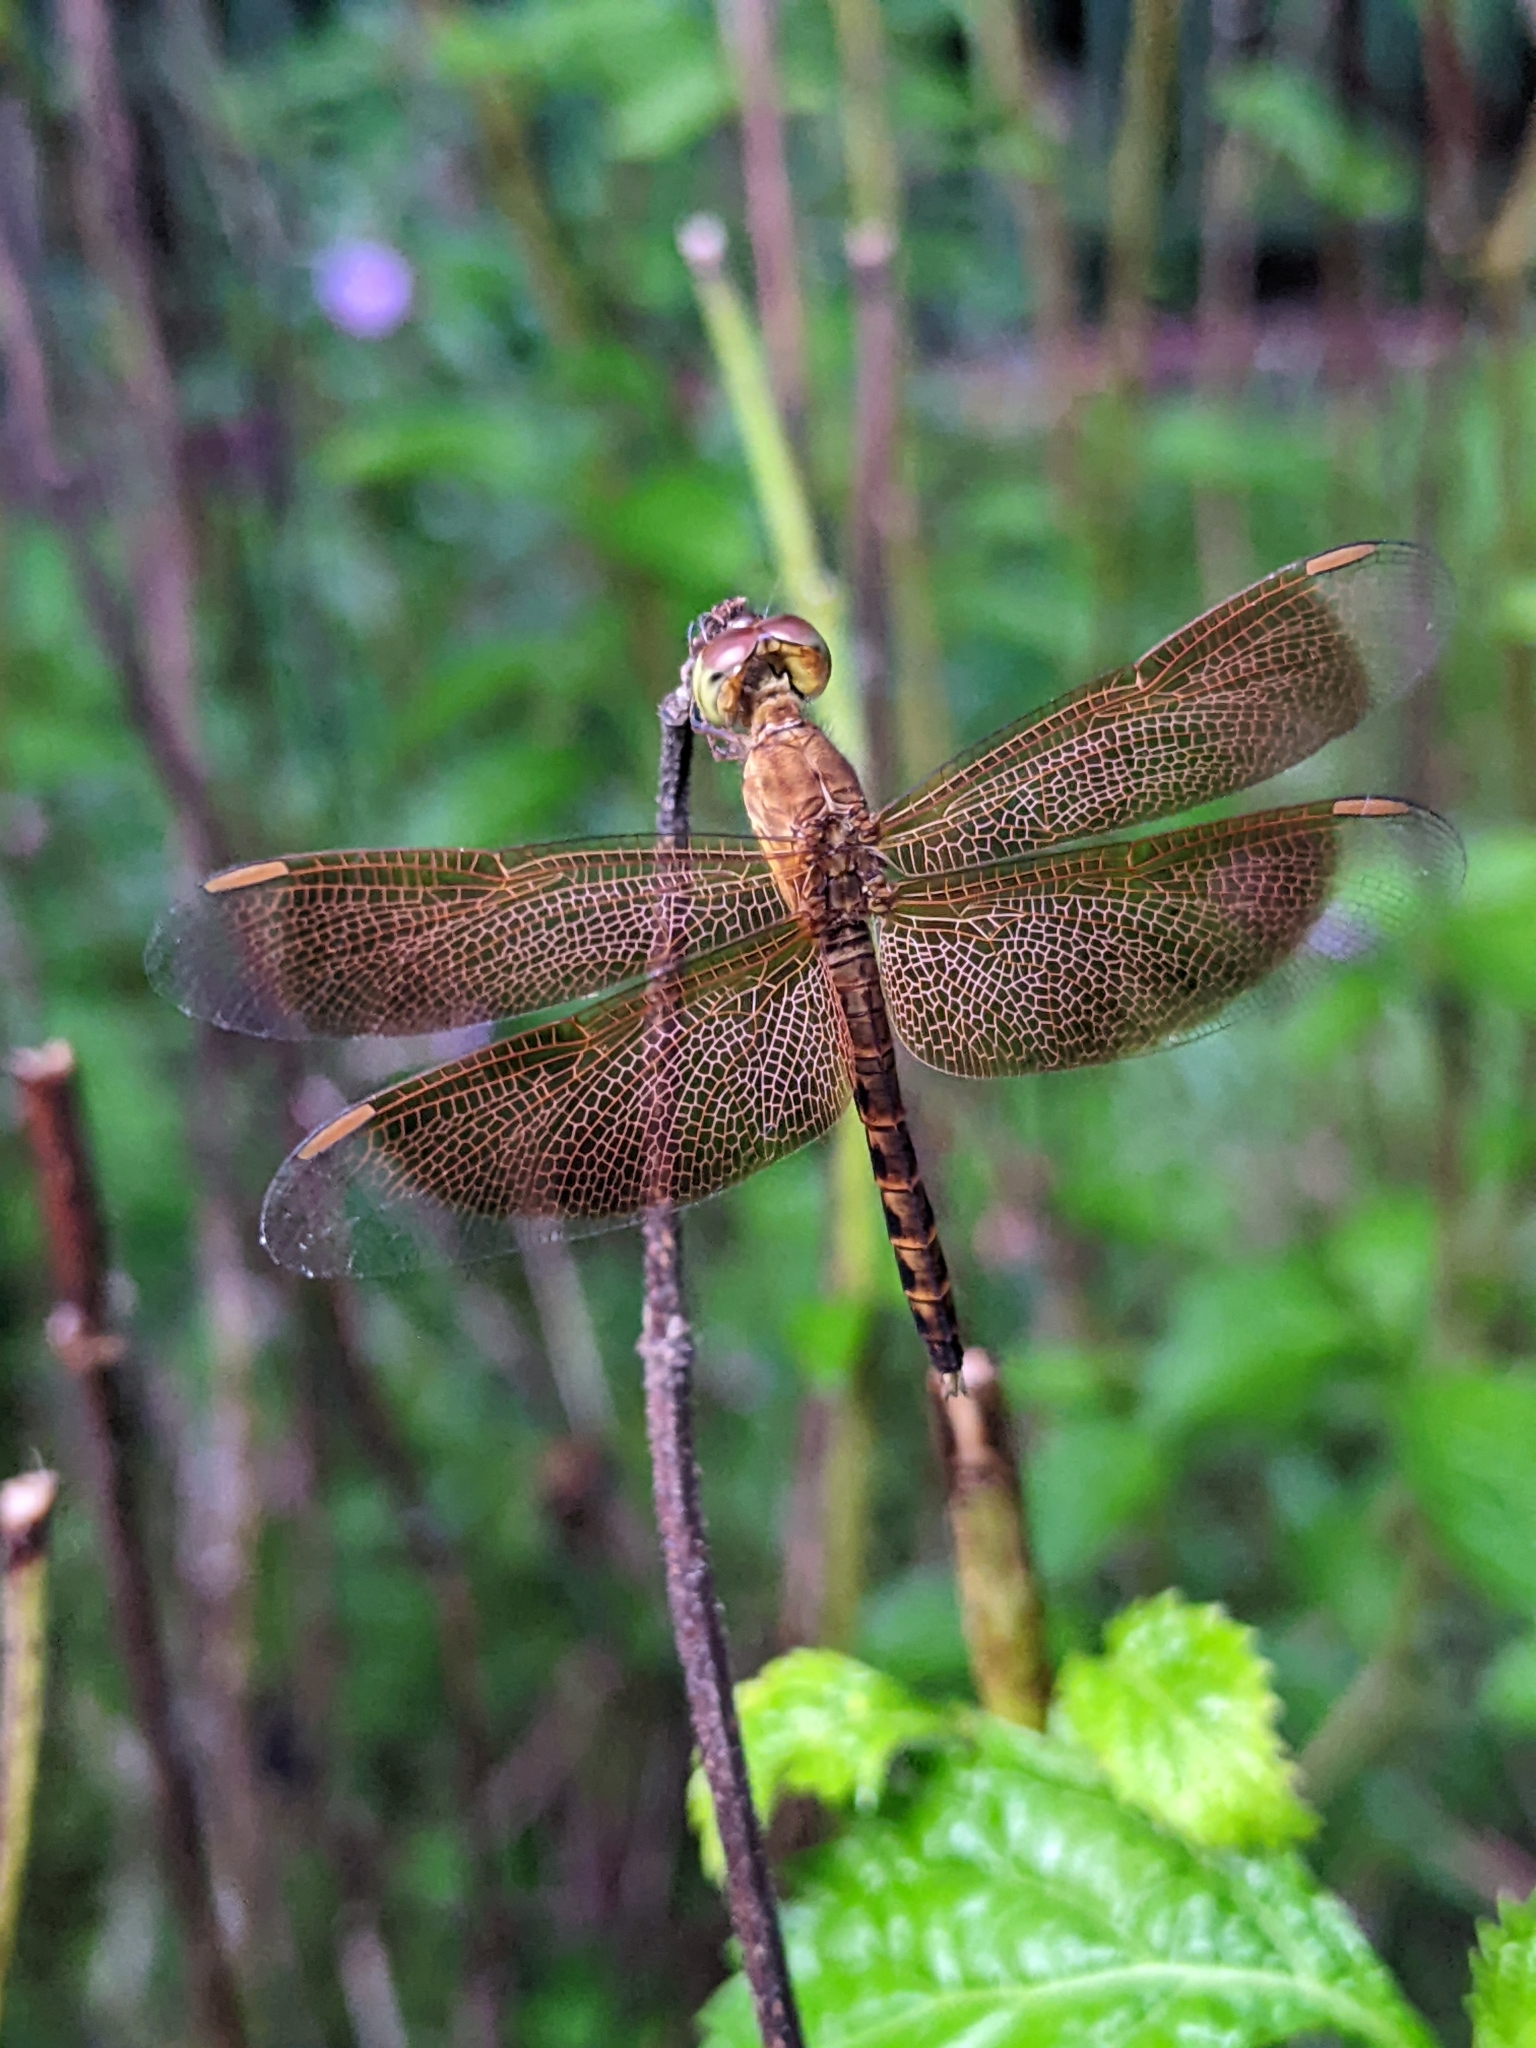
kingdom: Animalia
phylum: Arthropoda
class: Insecta
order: Odonata
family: Libellulidae
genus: Neurothemis
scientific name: Neurothemis fluctuans
